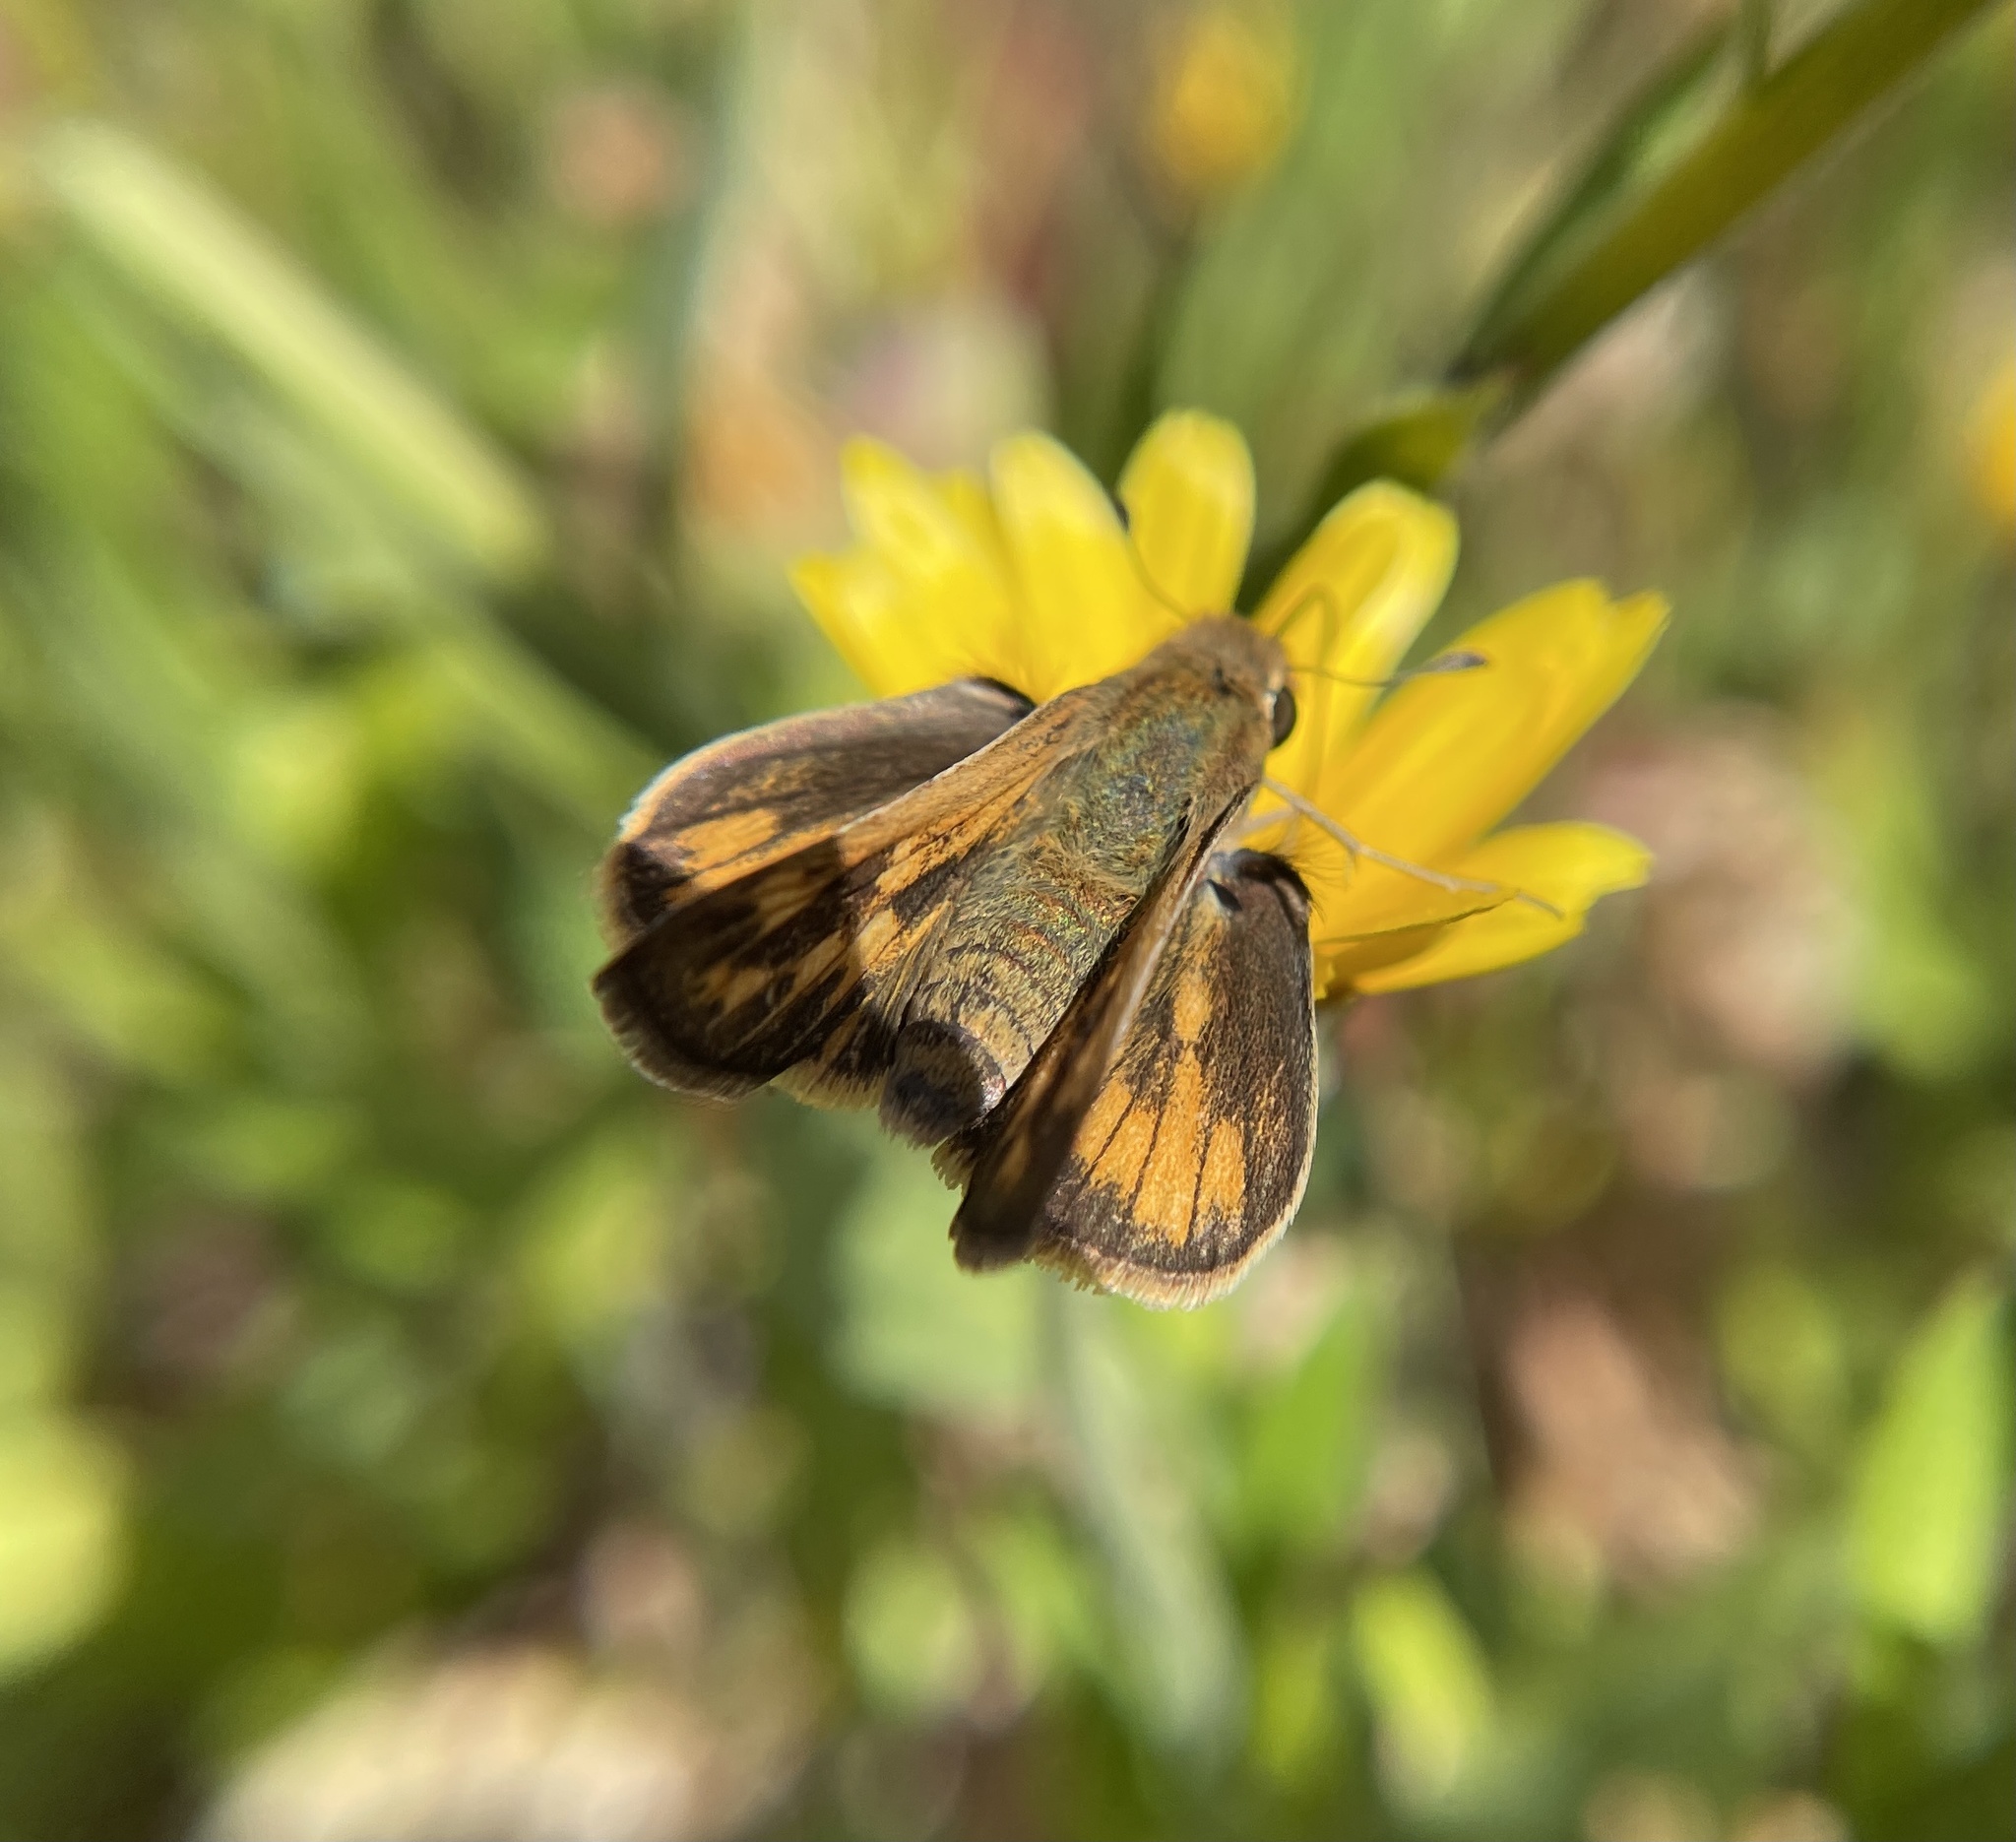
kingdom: Animalia
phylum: Arthropoda
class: Insecta
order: Lepidoptera
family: Hesperiidae
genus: Hylephila
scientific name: Hylephila phyleus
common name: Fiery skipper
